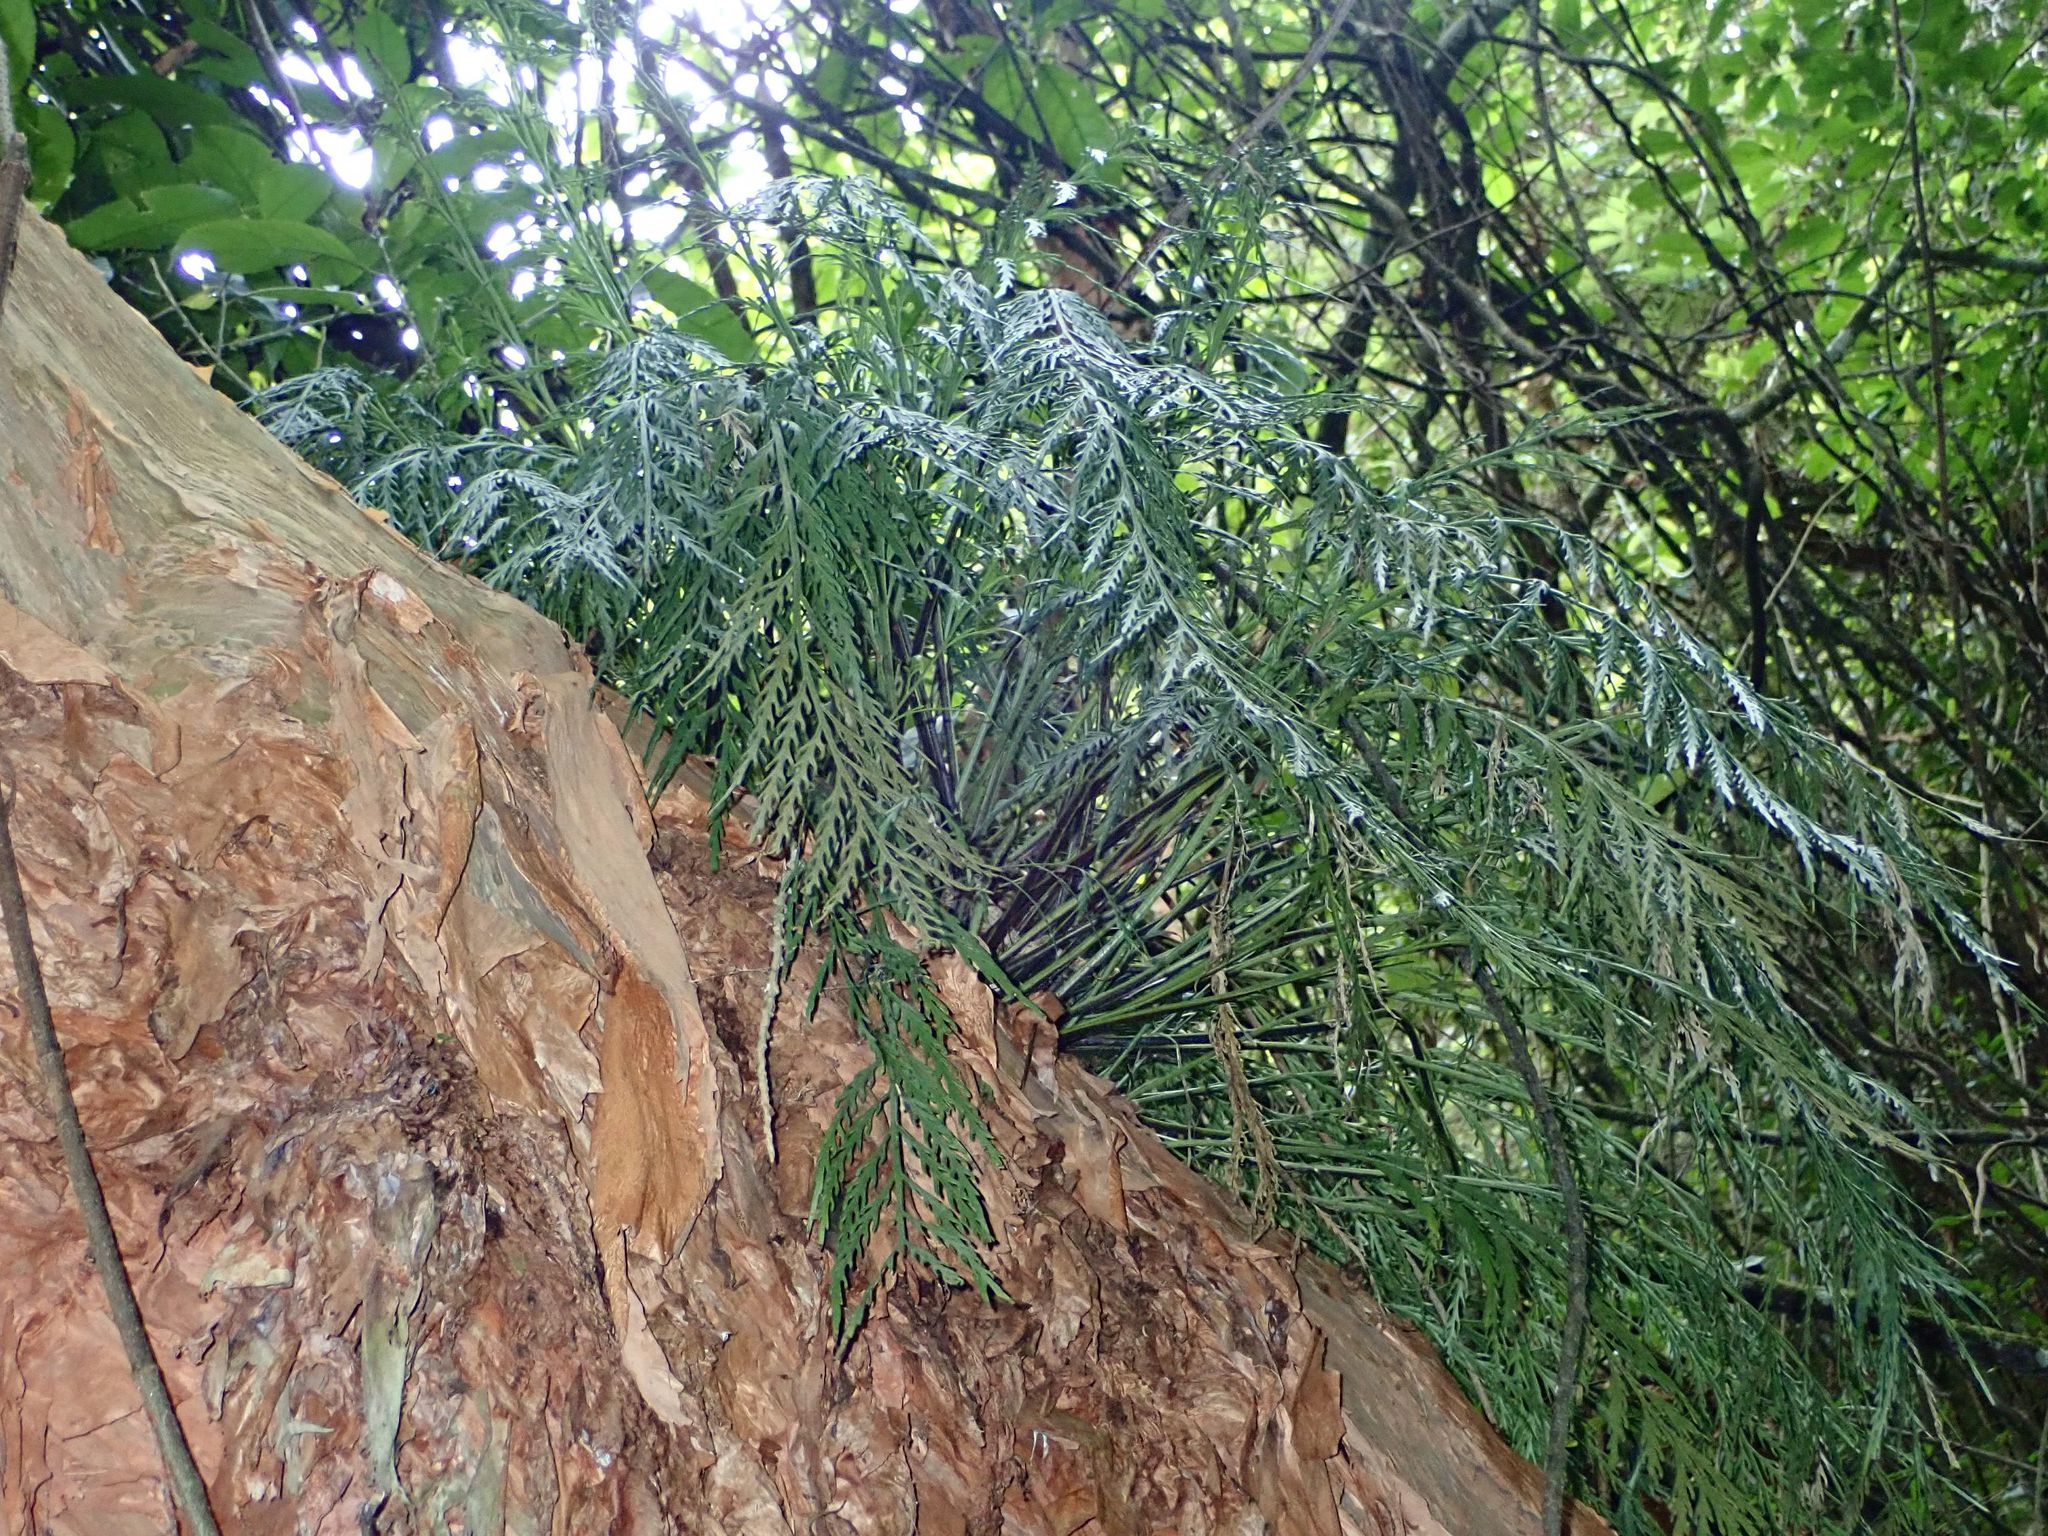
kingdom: Plantae
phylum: Tracheophyta
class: Polypodiopsida
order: Polypodiales
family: Aspleniaceae
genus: Asplenium
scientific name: Asplenium flaccidum
